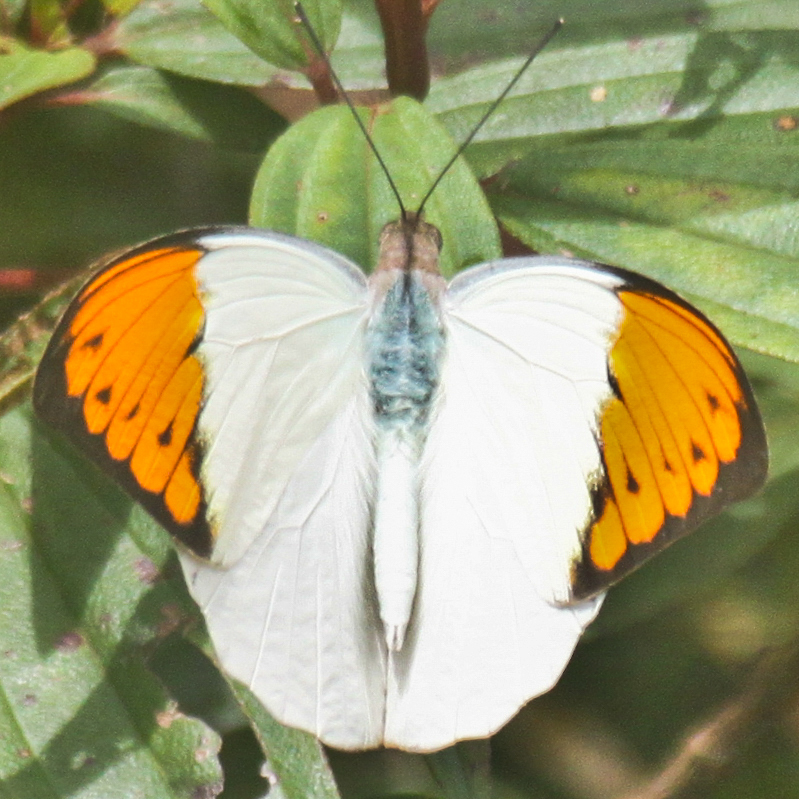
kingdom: Animalia
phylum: Arthropoda
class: Insecta
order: Lepidoptera
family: Pieridae
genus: Hebomoia
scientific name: Hebomoia glaucippe
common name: Great orange tip
